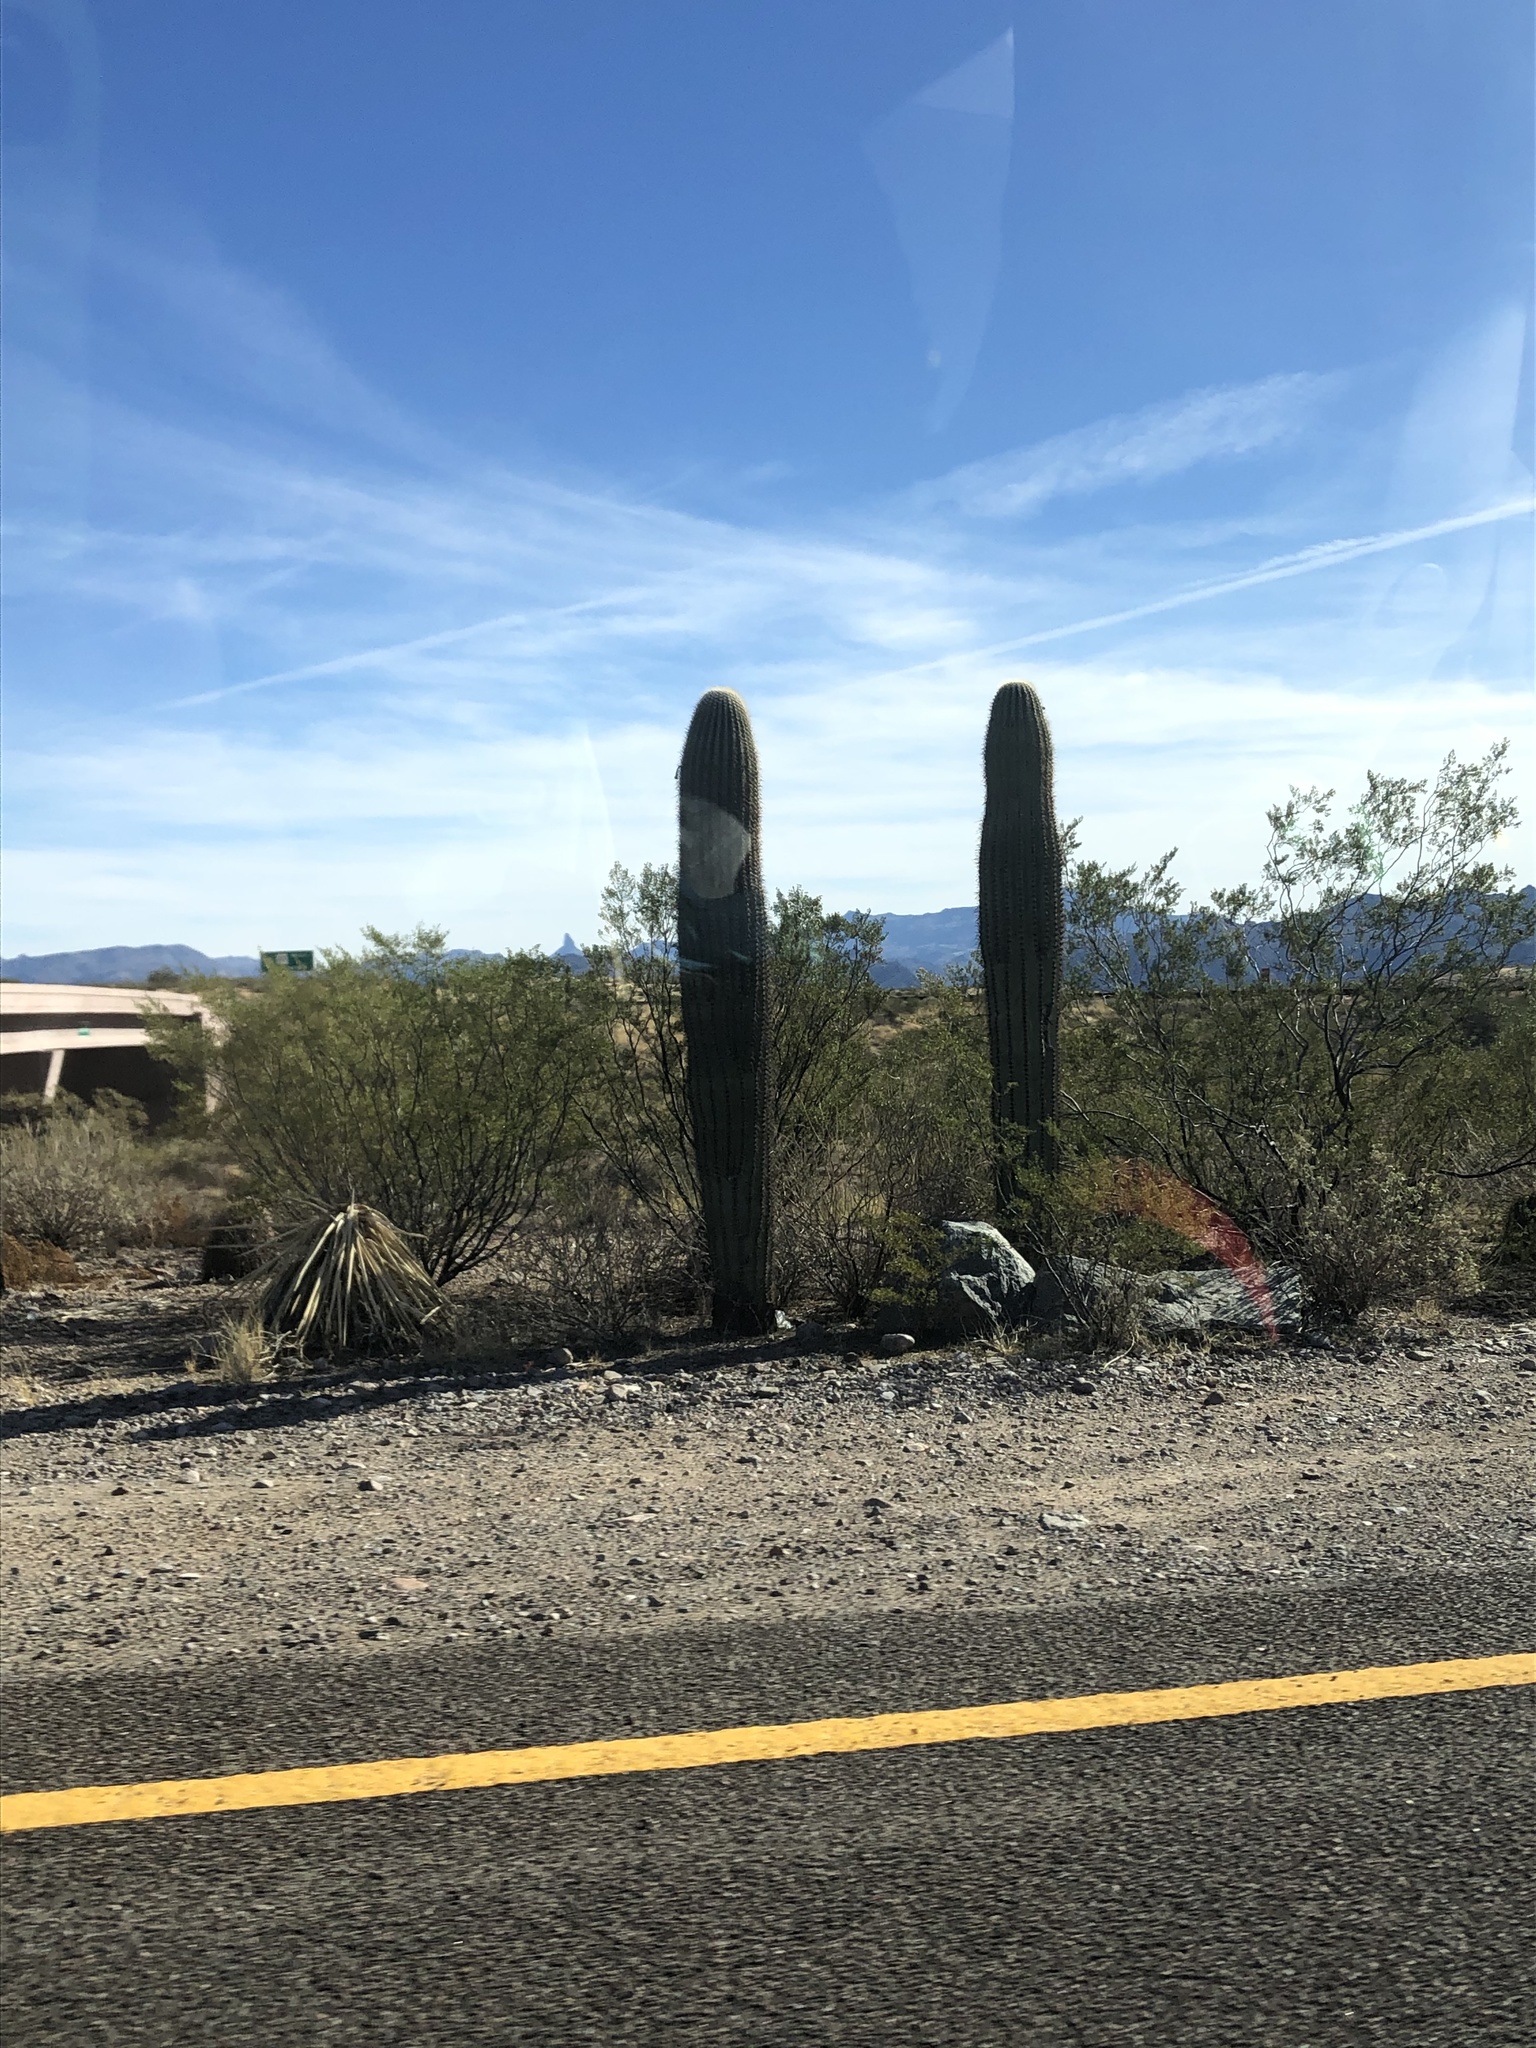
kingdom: Plantae
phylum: Tracheophyta
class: Magnoliopsida
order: Caryophyllales
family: Cactaceae
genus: Carnegiea
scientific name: Carnegiea gigantea
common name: Saguaro
